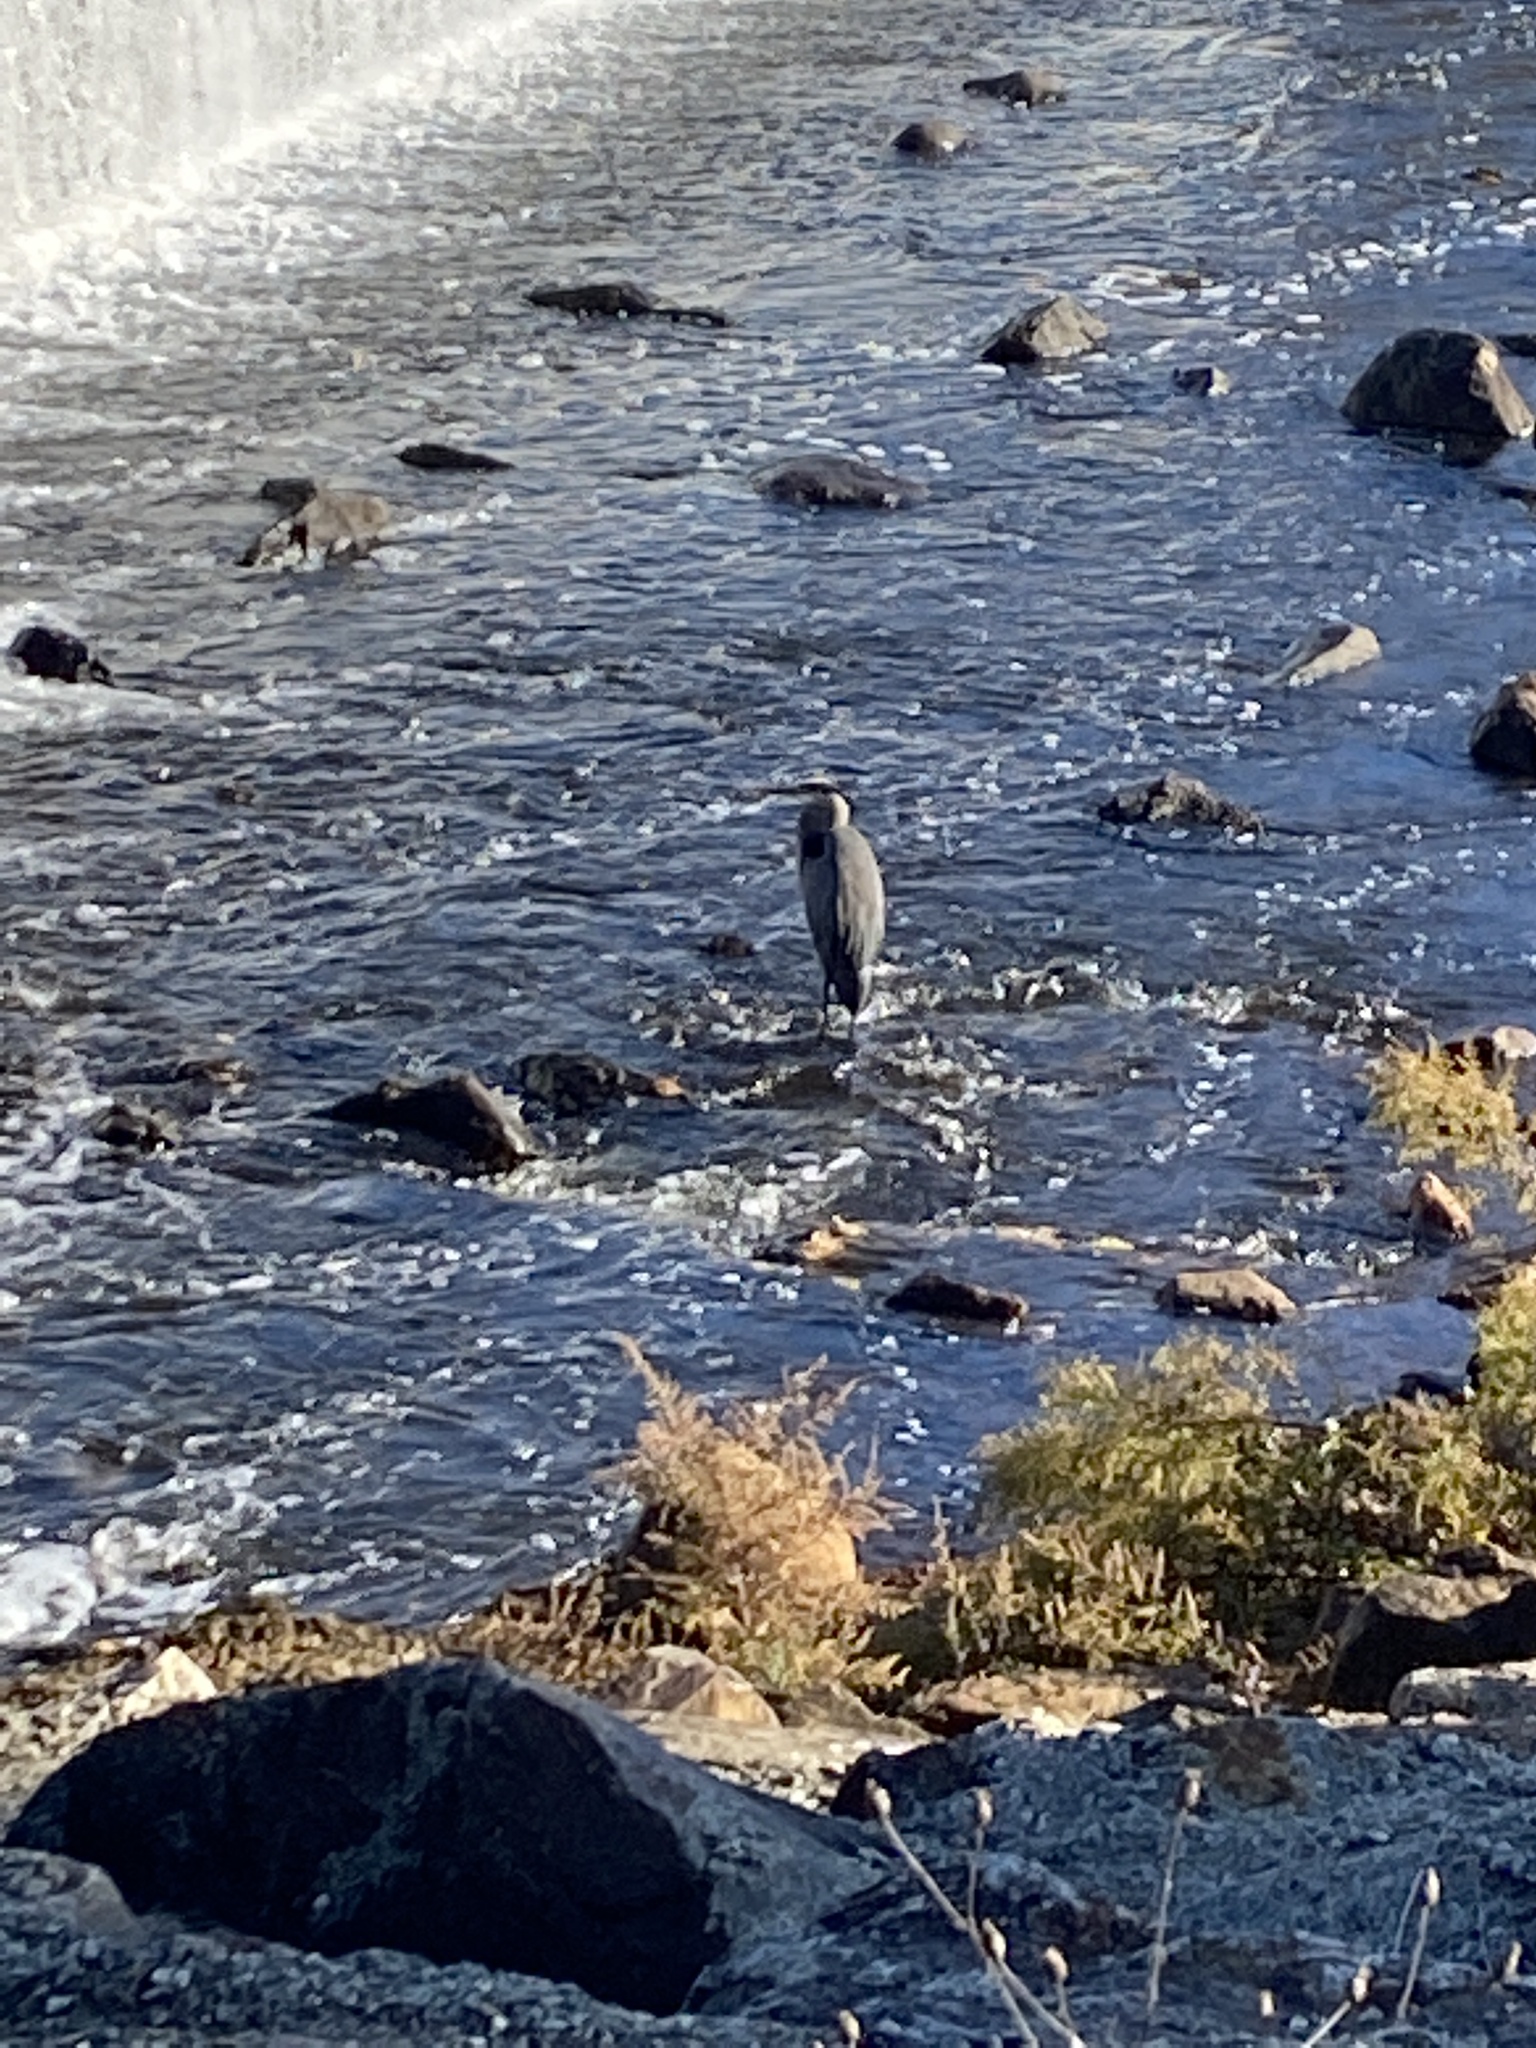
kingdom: Animalia
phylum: Chordata
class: Aves
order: Pelecaniformes
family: Ardeidae
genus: Ardea
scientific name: Ardea herodias
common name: Great blue heron
